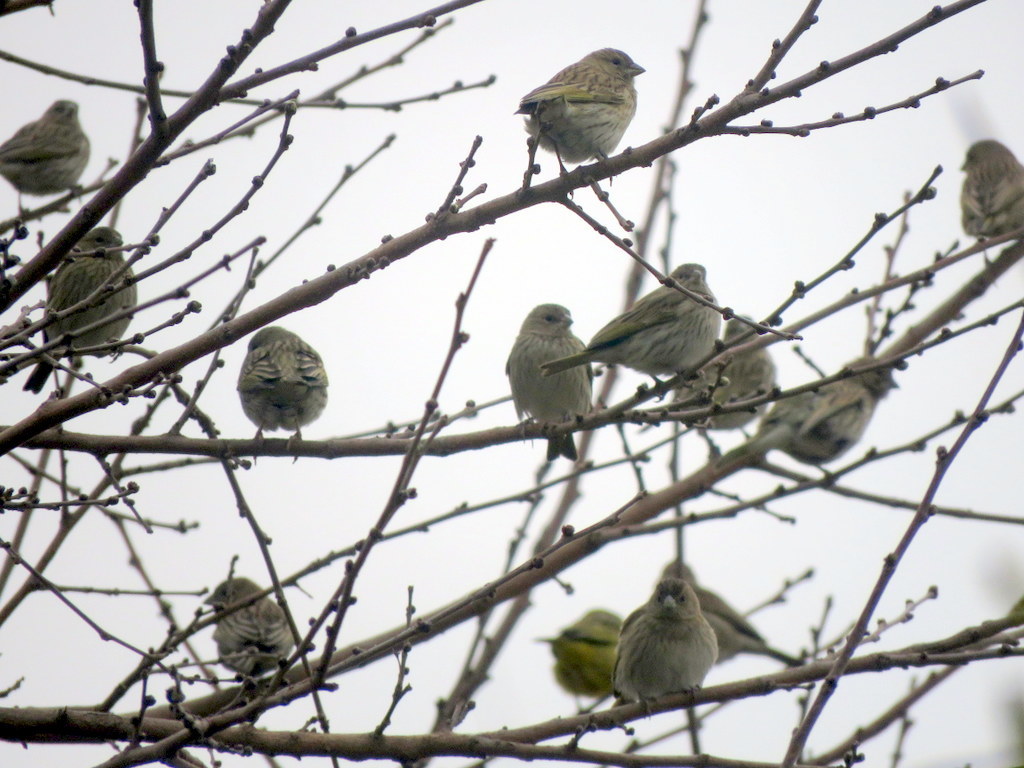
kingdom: Animalia
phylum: Chordata
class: Aves
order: Passeriformes
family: Thraupidae
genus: Sicalis
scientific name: Sicalis flaveola
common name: Saffron finch
